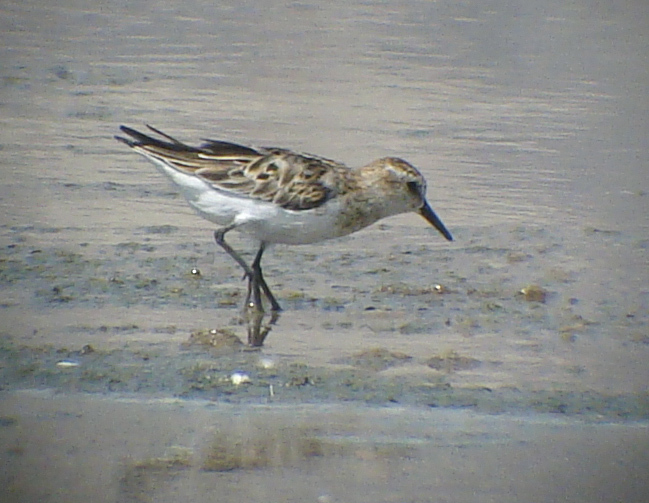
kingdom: Animalia
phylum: Chordata
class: Aves
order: Charadriiformes
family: Scolopacidae
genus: Calidris
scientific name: Calidris minuta
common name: Little stint
